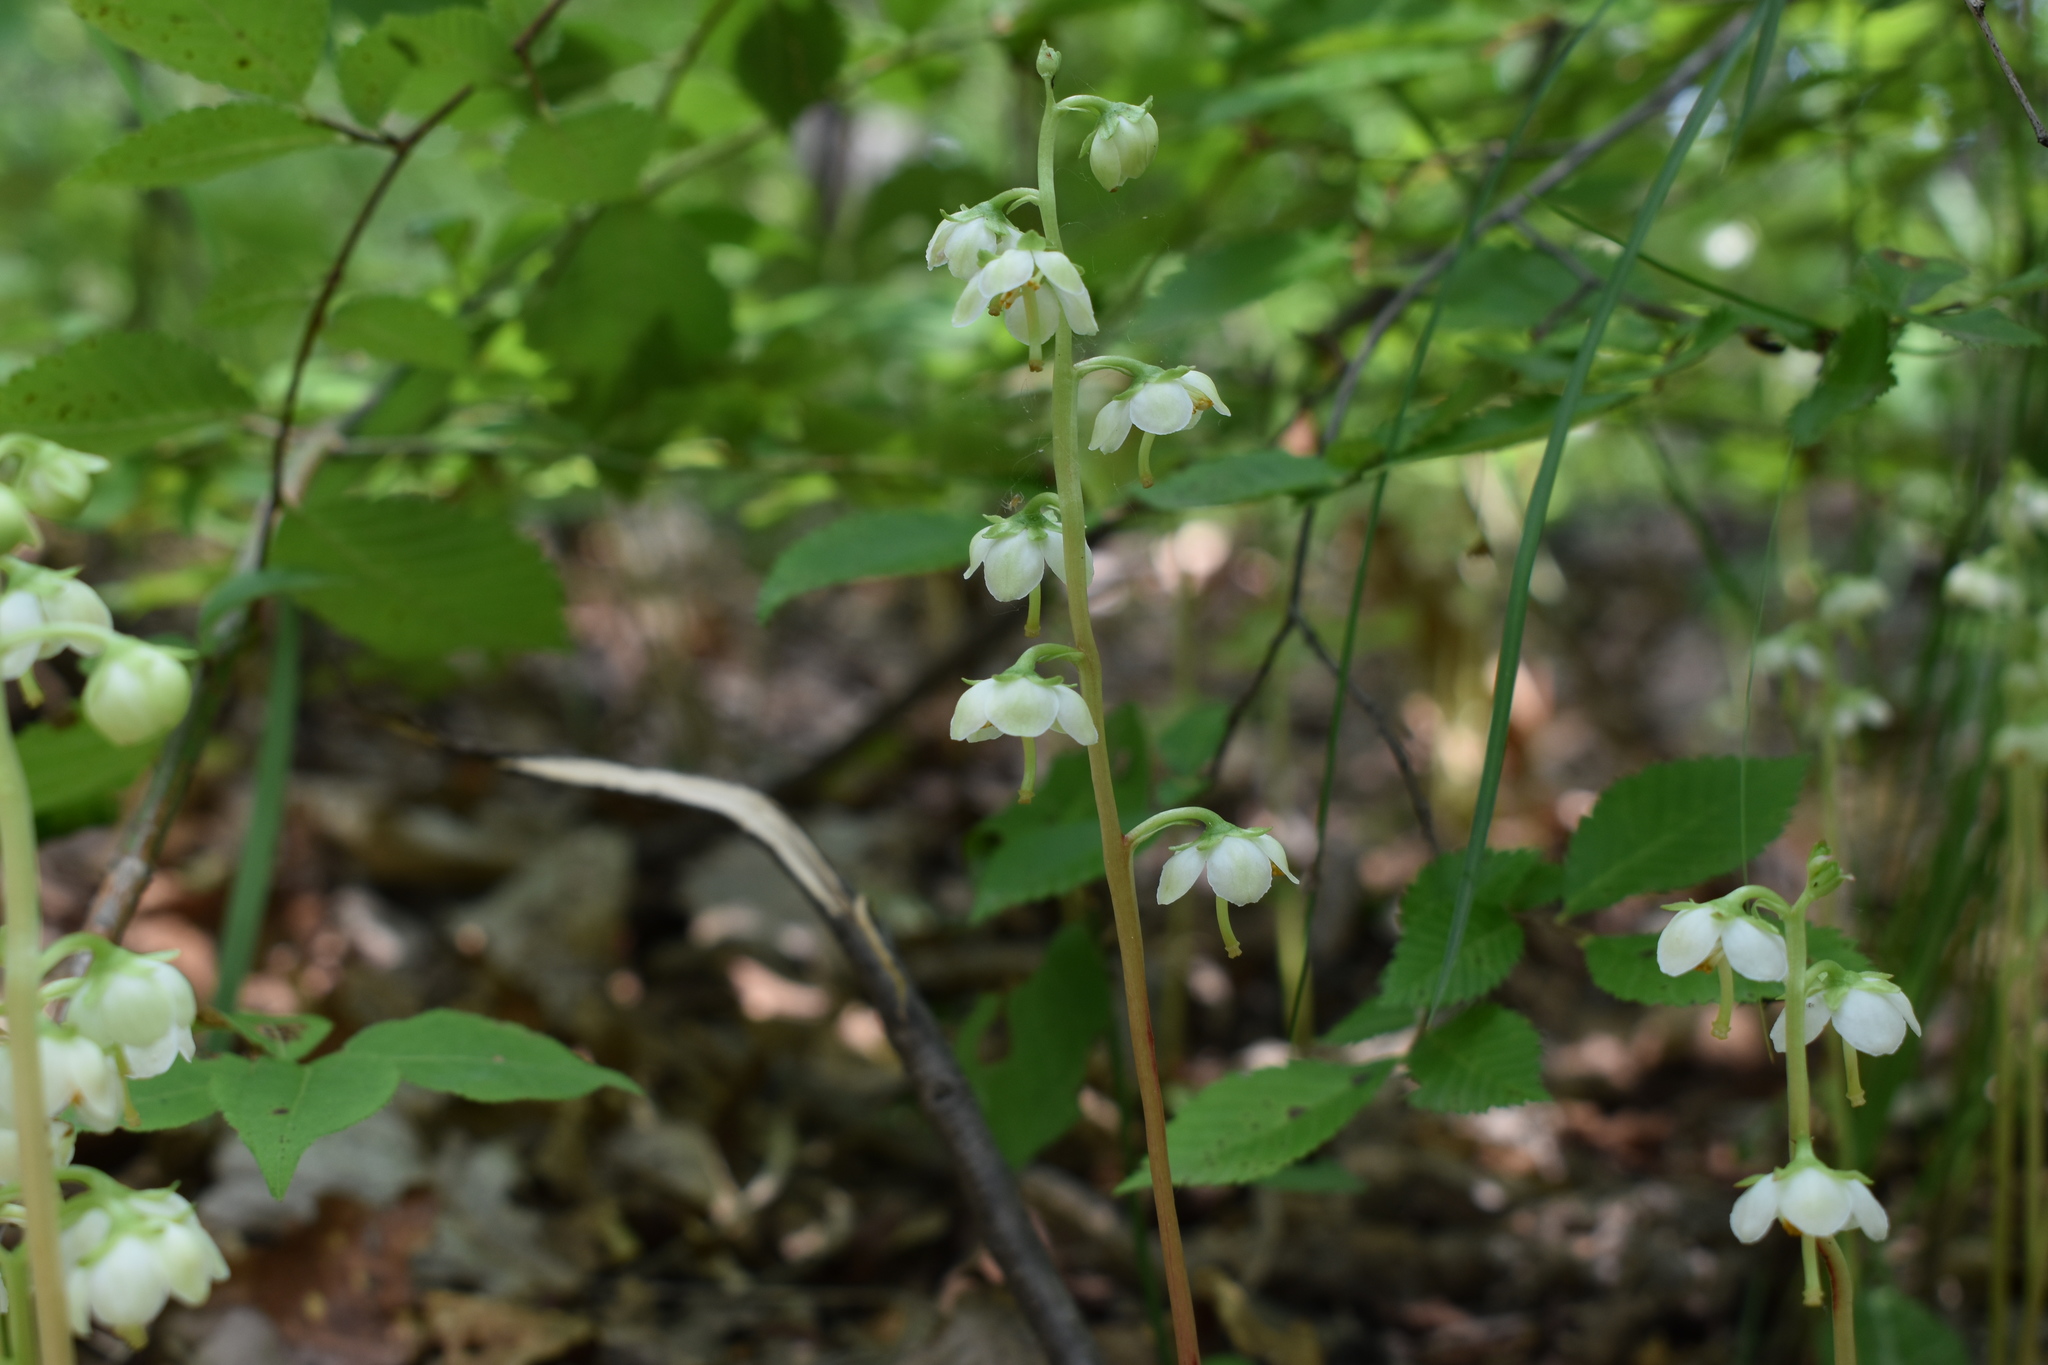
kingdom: Plantae
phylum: Tracheophyta
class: Magnoliopsida
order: Ericales
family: Ericaceae
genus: Pyrola
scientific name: Pyrola japonica
